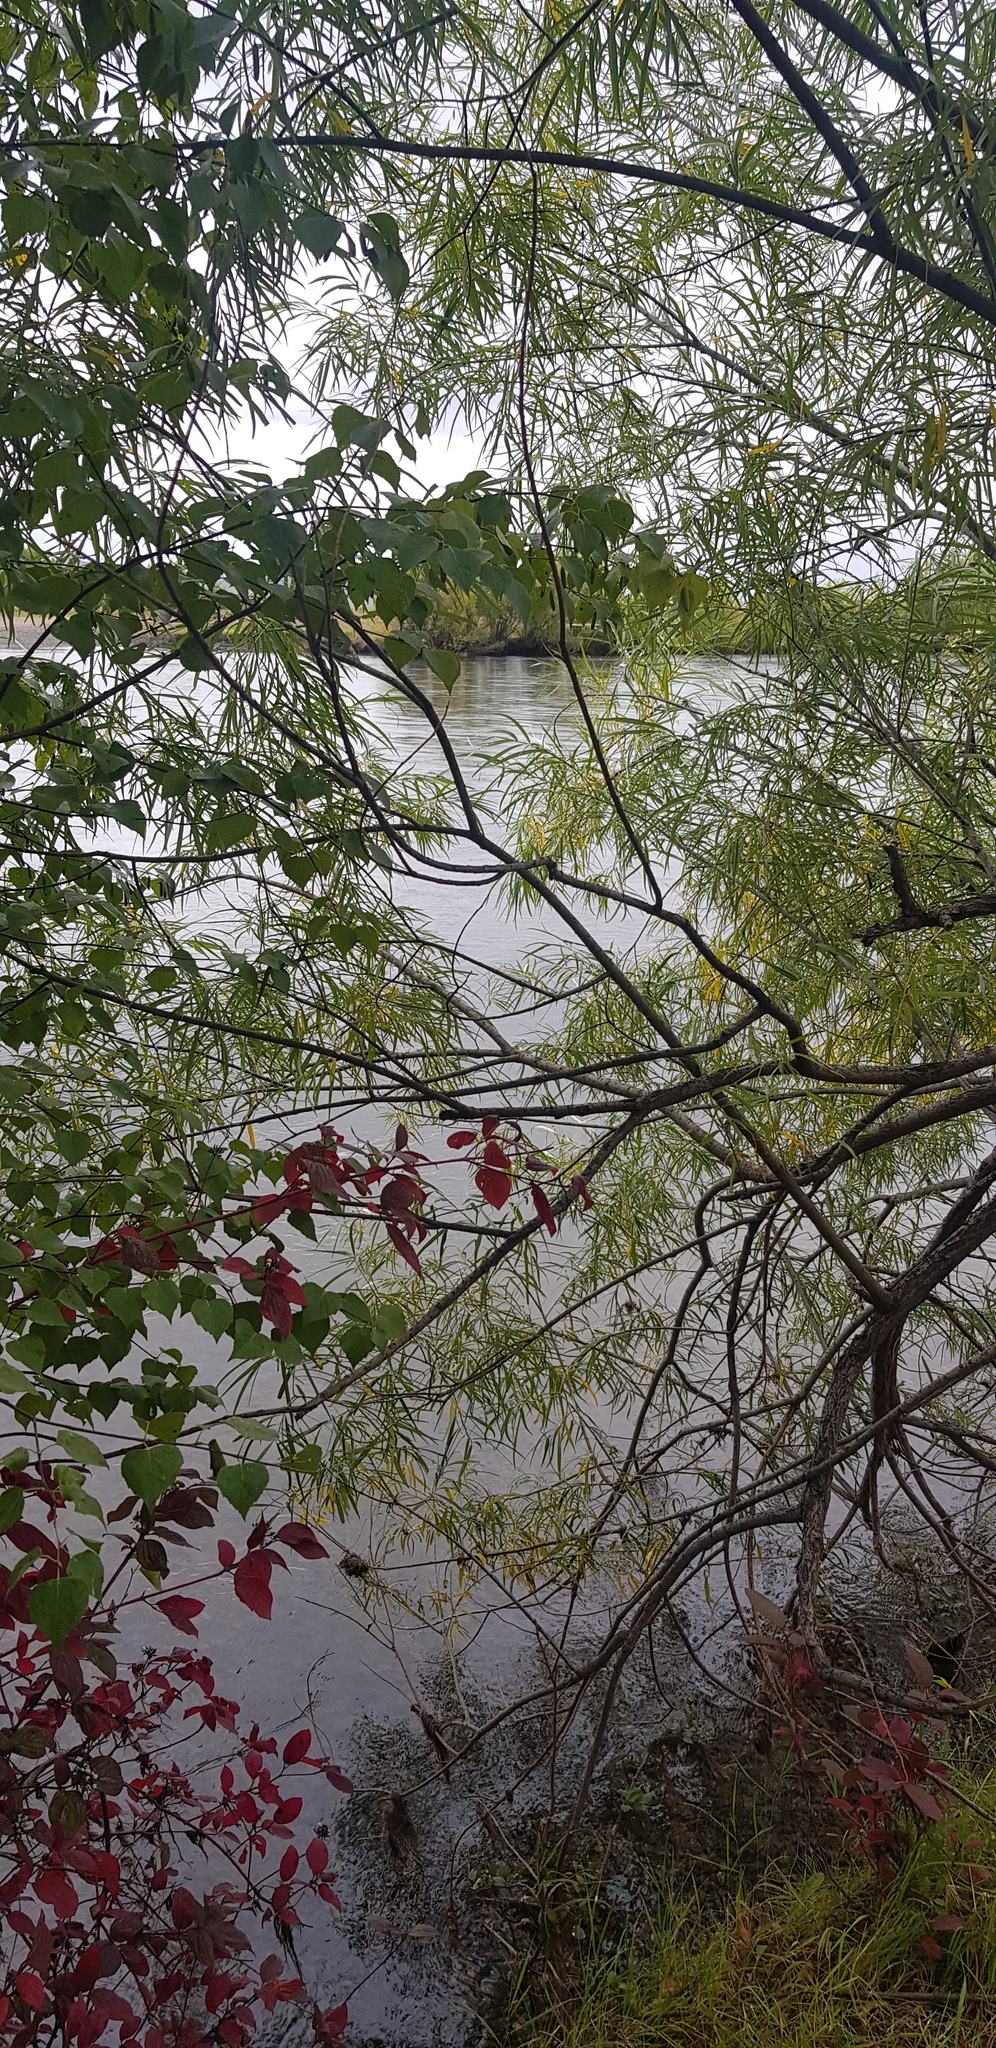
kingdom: Plantae
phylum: Tracheophyta
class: Magnoliopsida
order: Malpighiales
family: Salicaceae
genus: Salix
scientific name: Salix viminalis
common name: Osier
